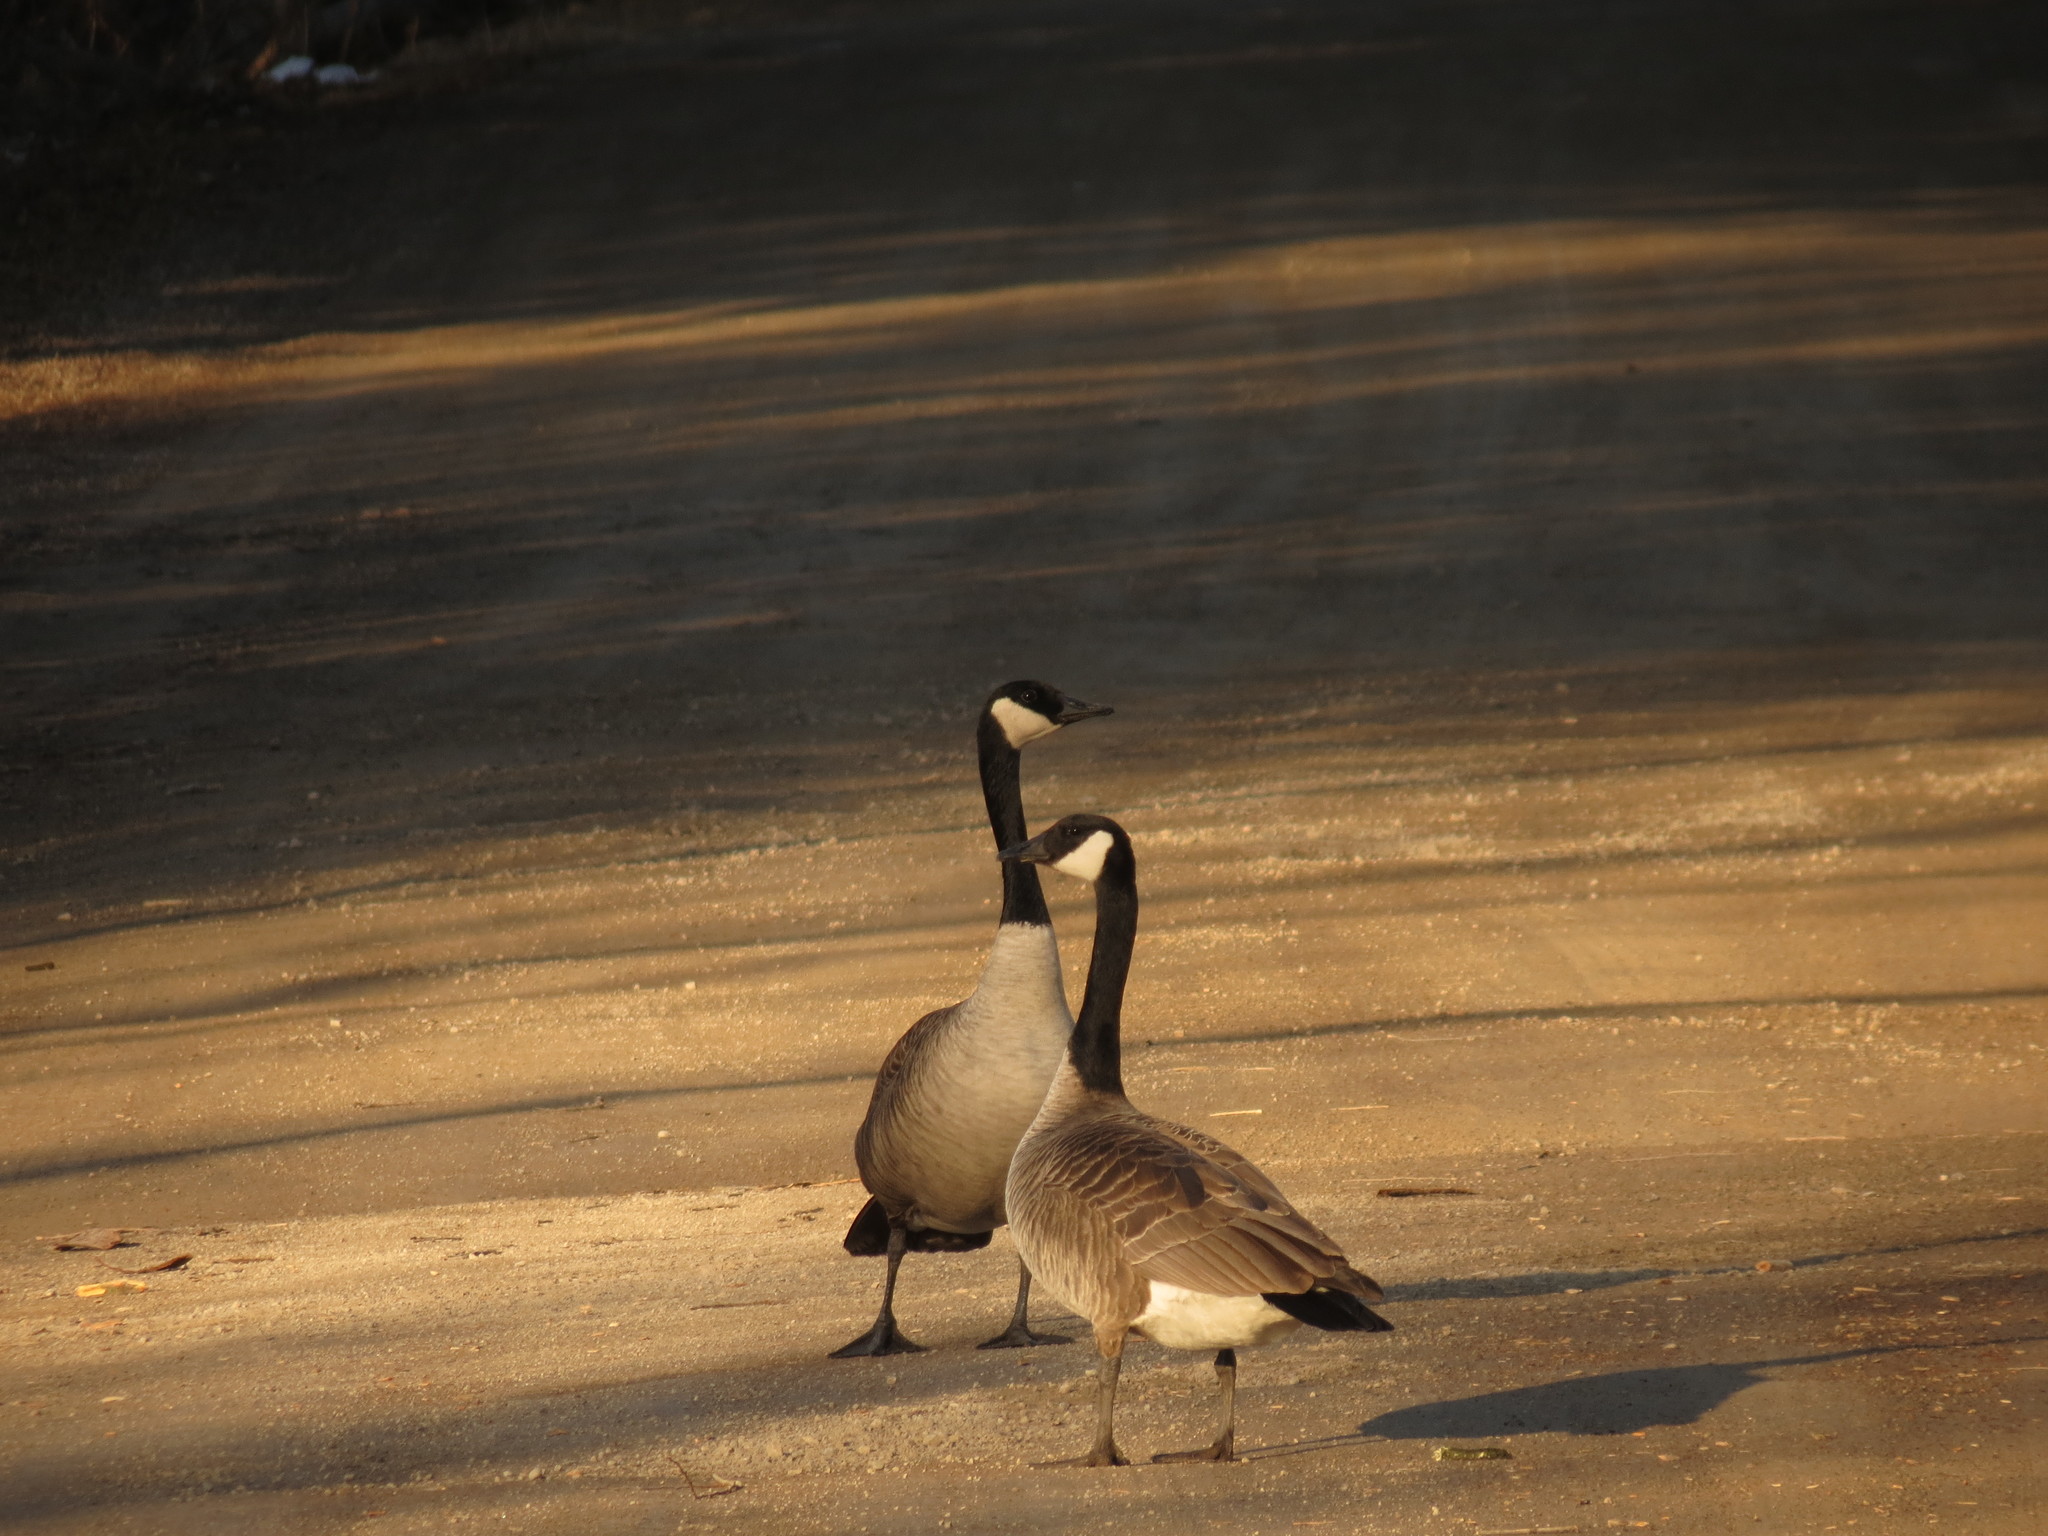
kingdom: Animalia
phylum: Chordata
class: Aves
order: Anseriformes
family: Anatidae
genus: Branta
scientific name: Branta canadensis
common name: Canada goose
